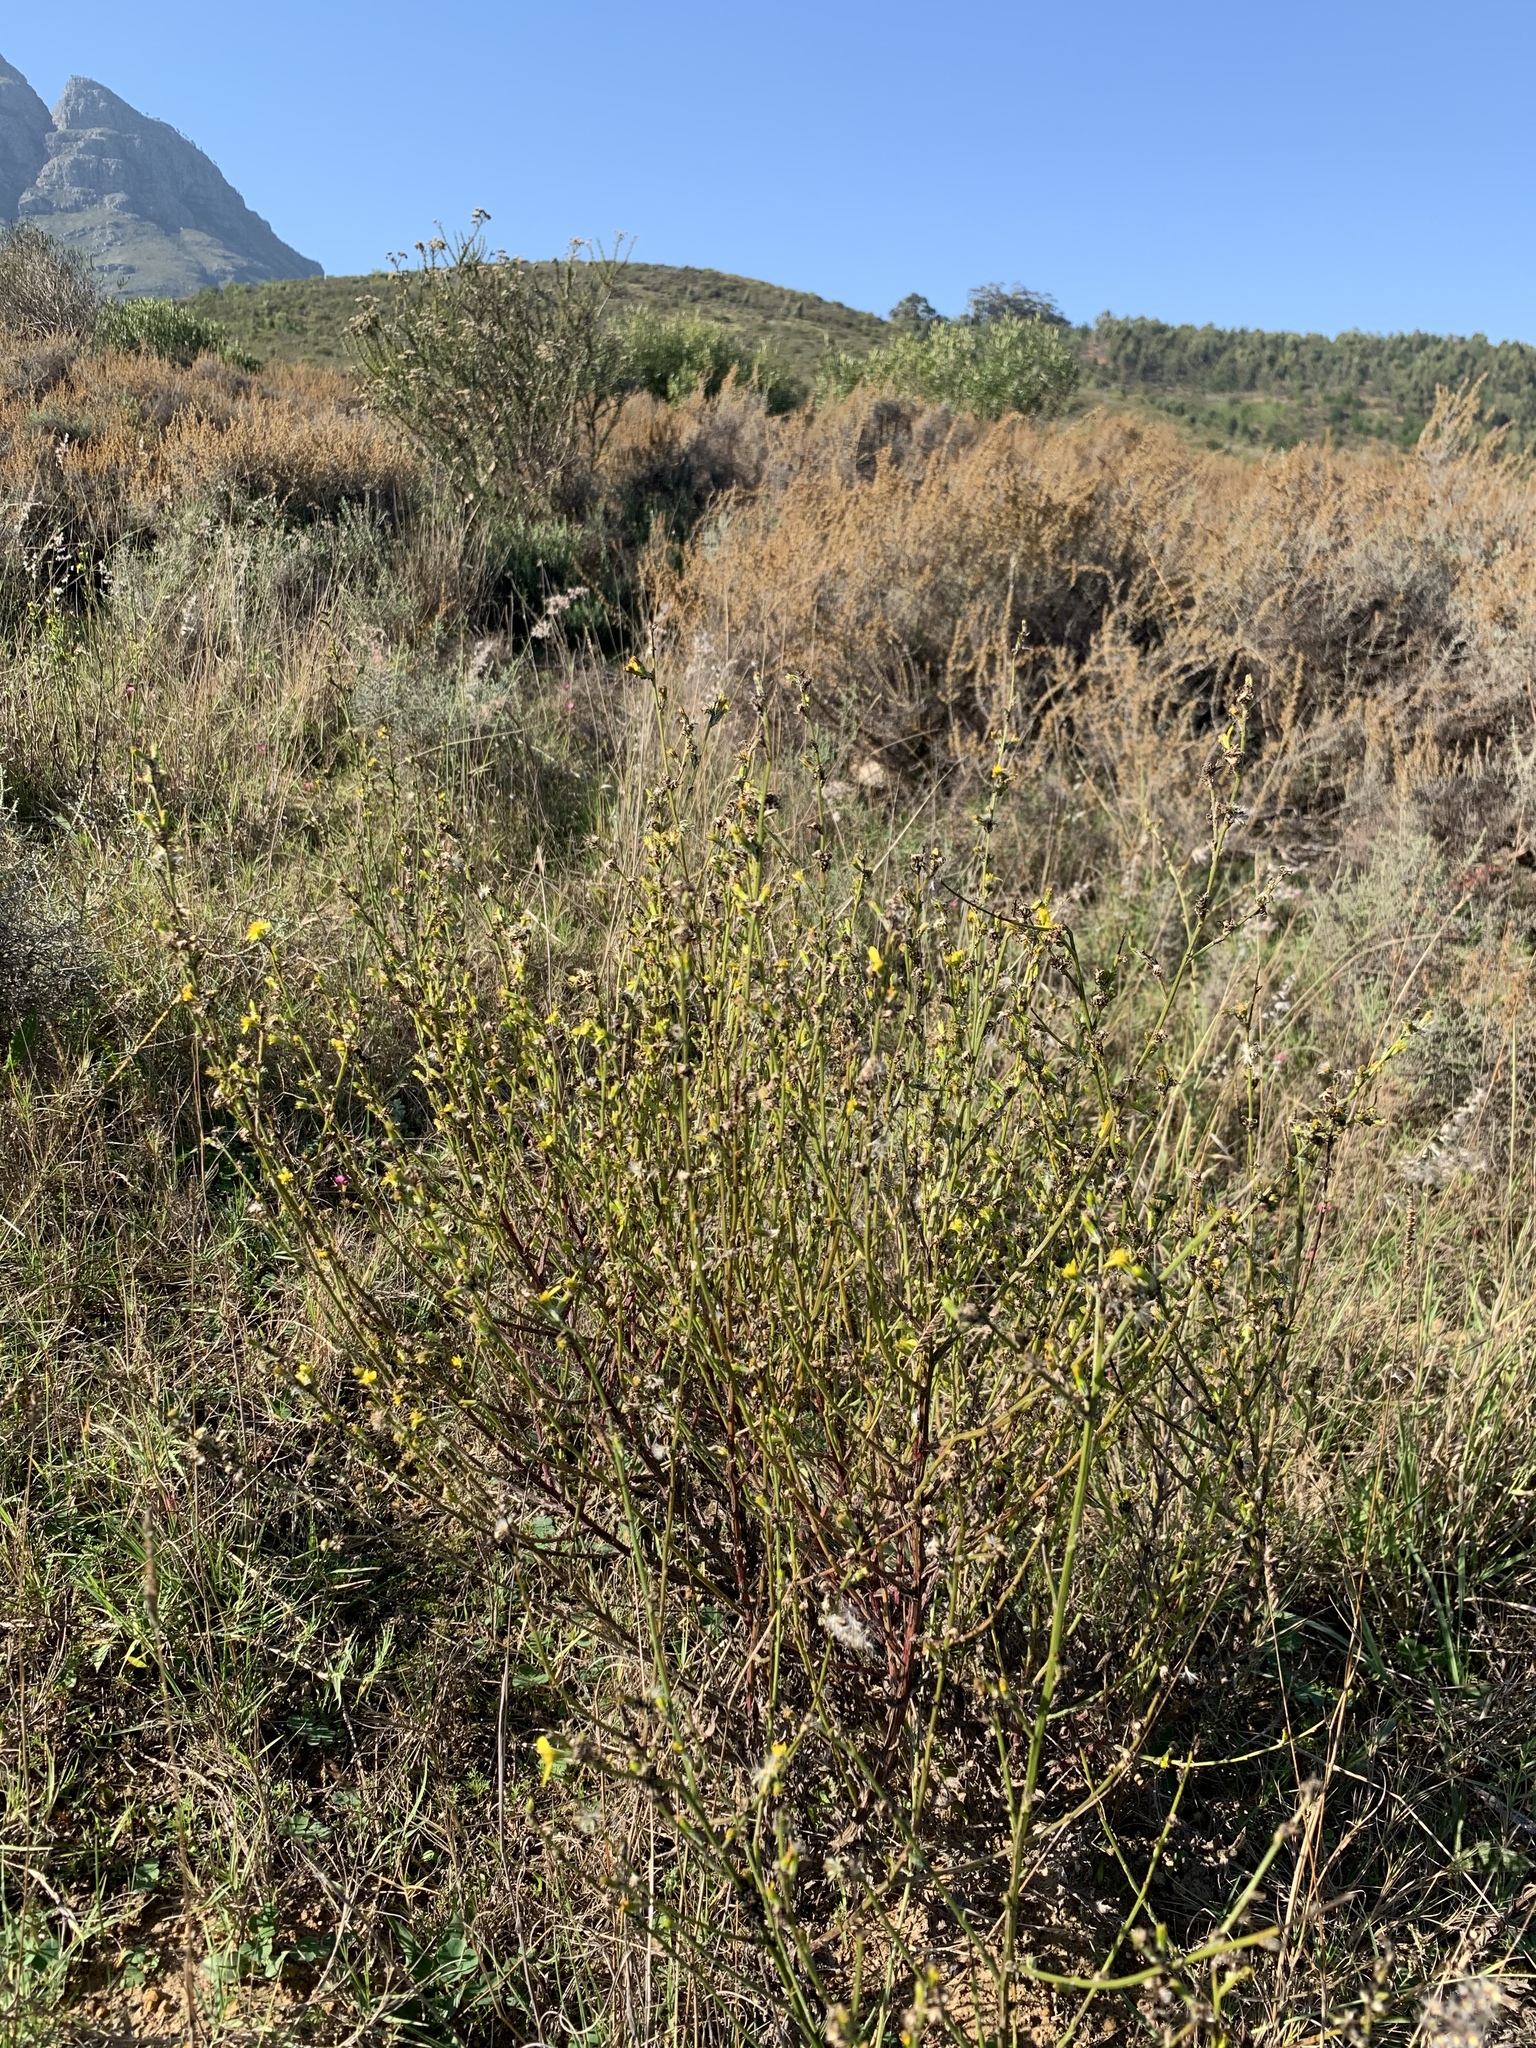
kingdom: Plantae
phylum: Tracheophyta
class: Magnoliopsida
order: Asterales
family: Asteraceae
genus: Senecio
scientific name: Senecio pubigerus
